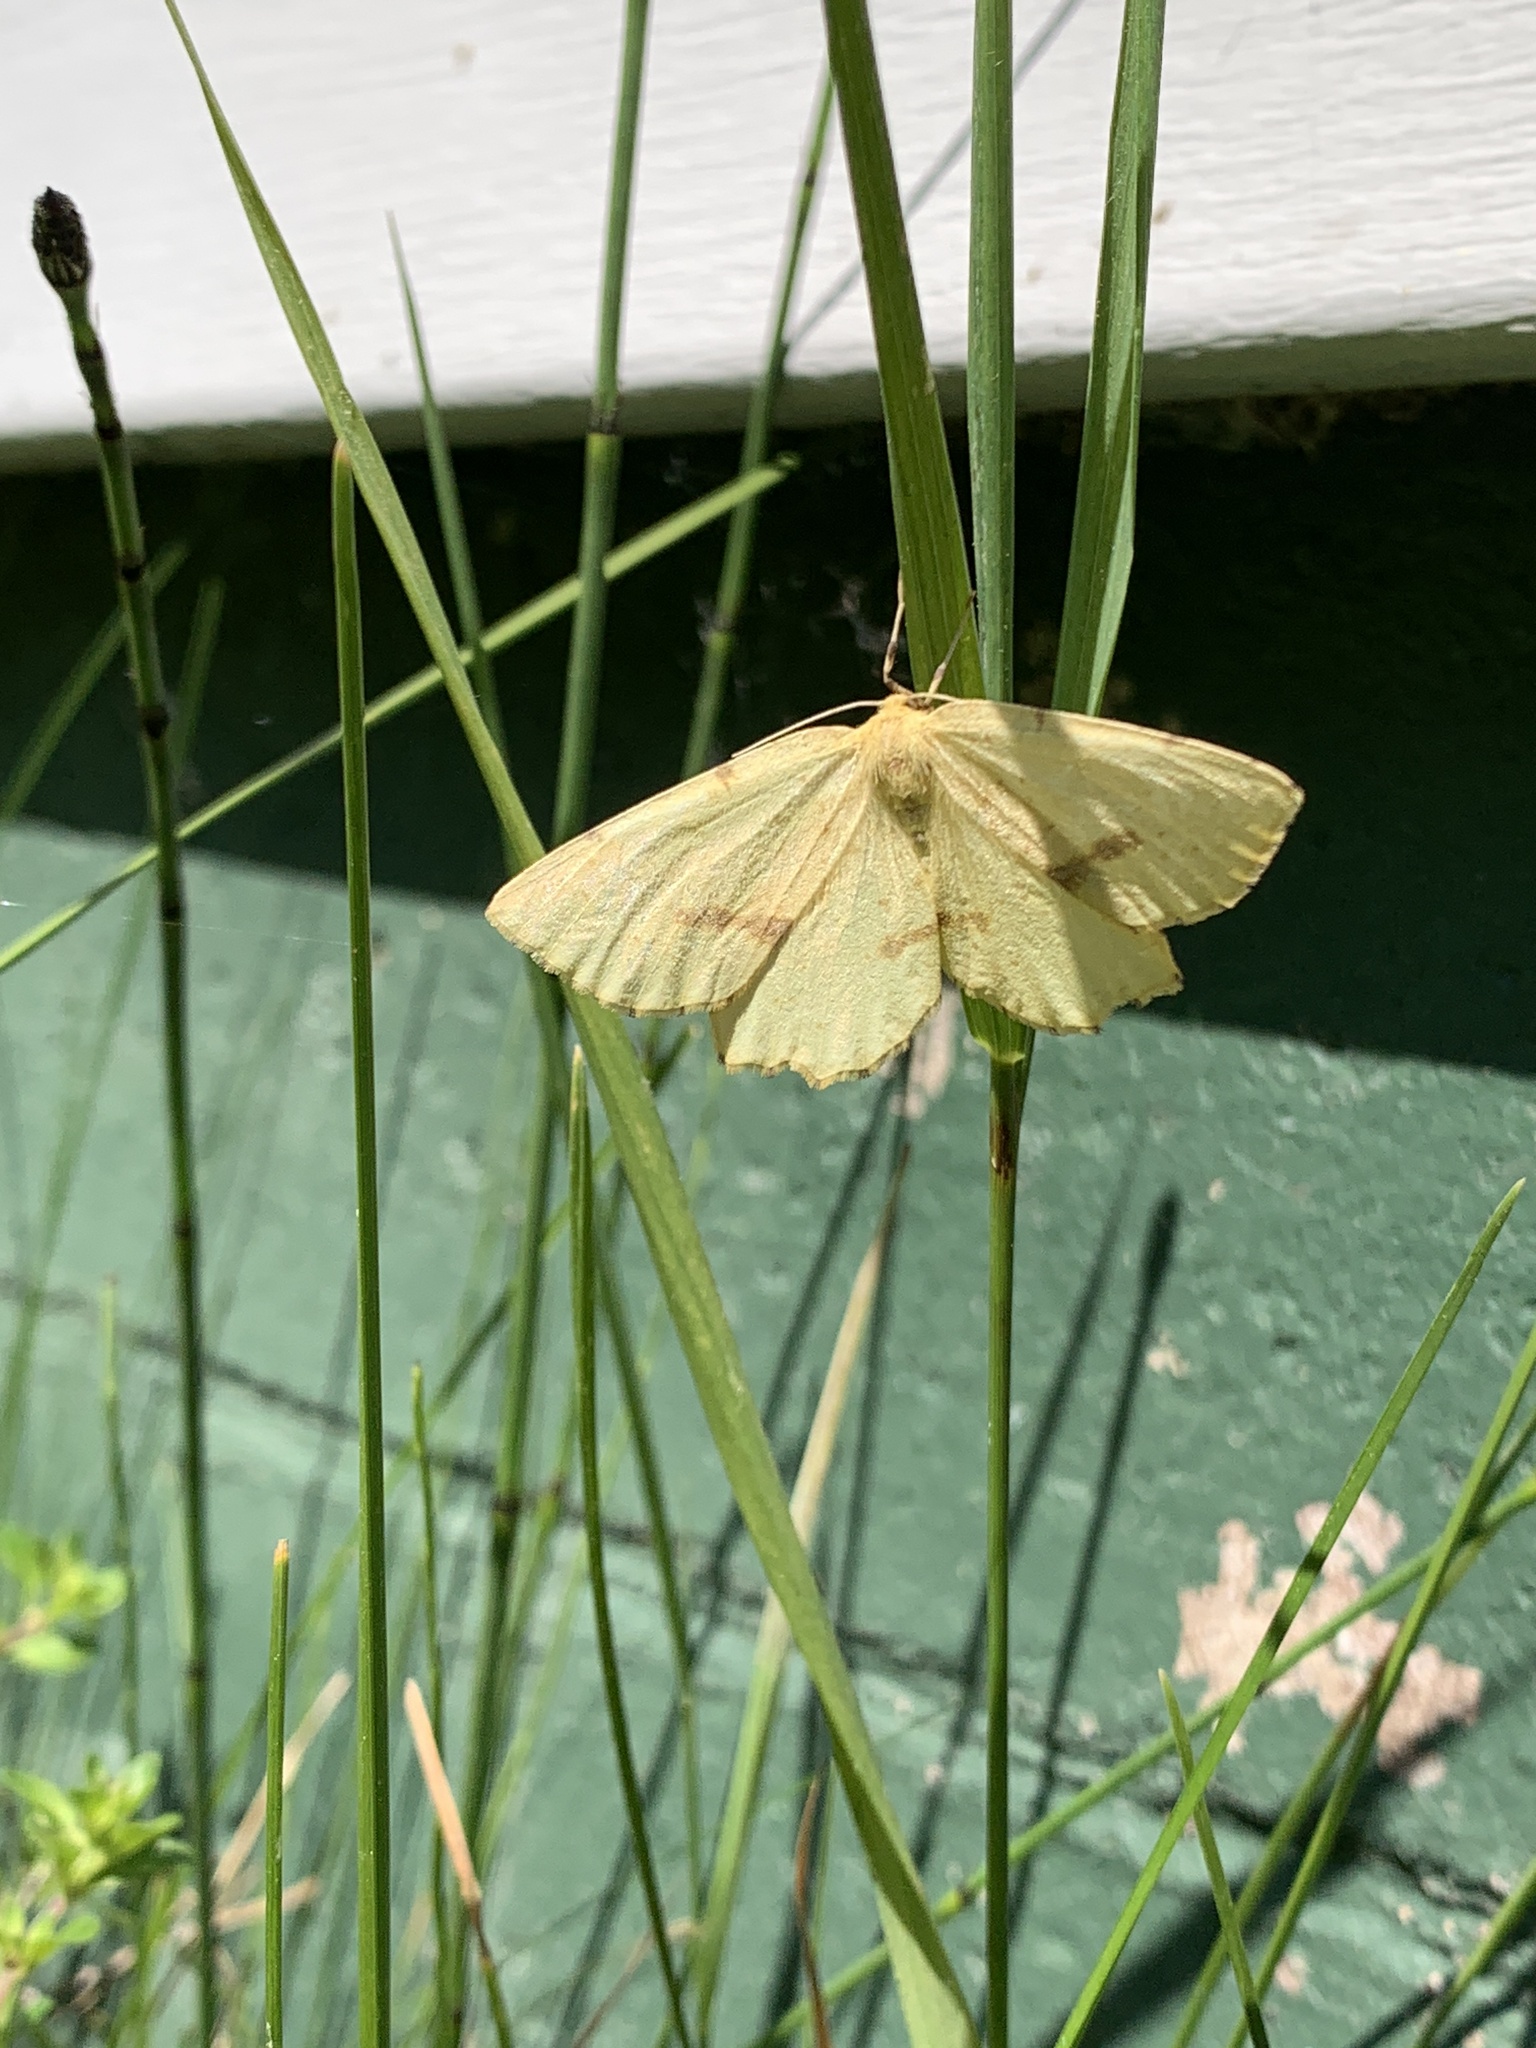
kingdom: Animalia
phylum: Arthropoda
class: Insecta
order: Lepidoptera
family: Geometridae
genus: Xanthotype
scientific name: Xanthotype
